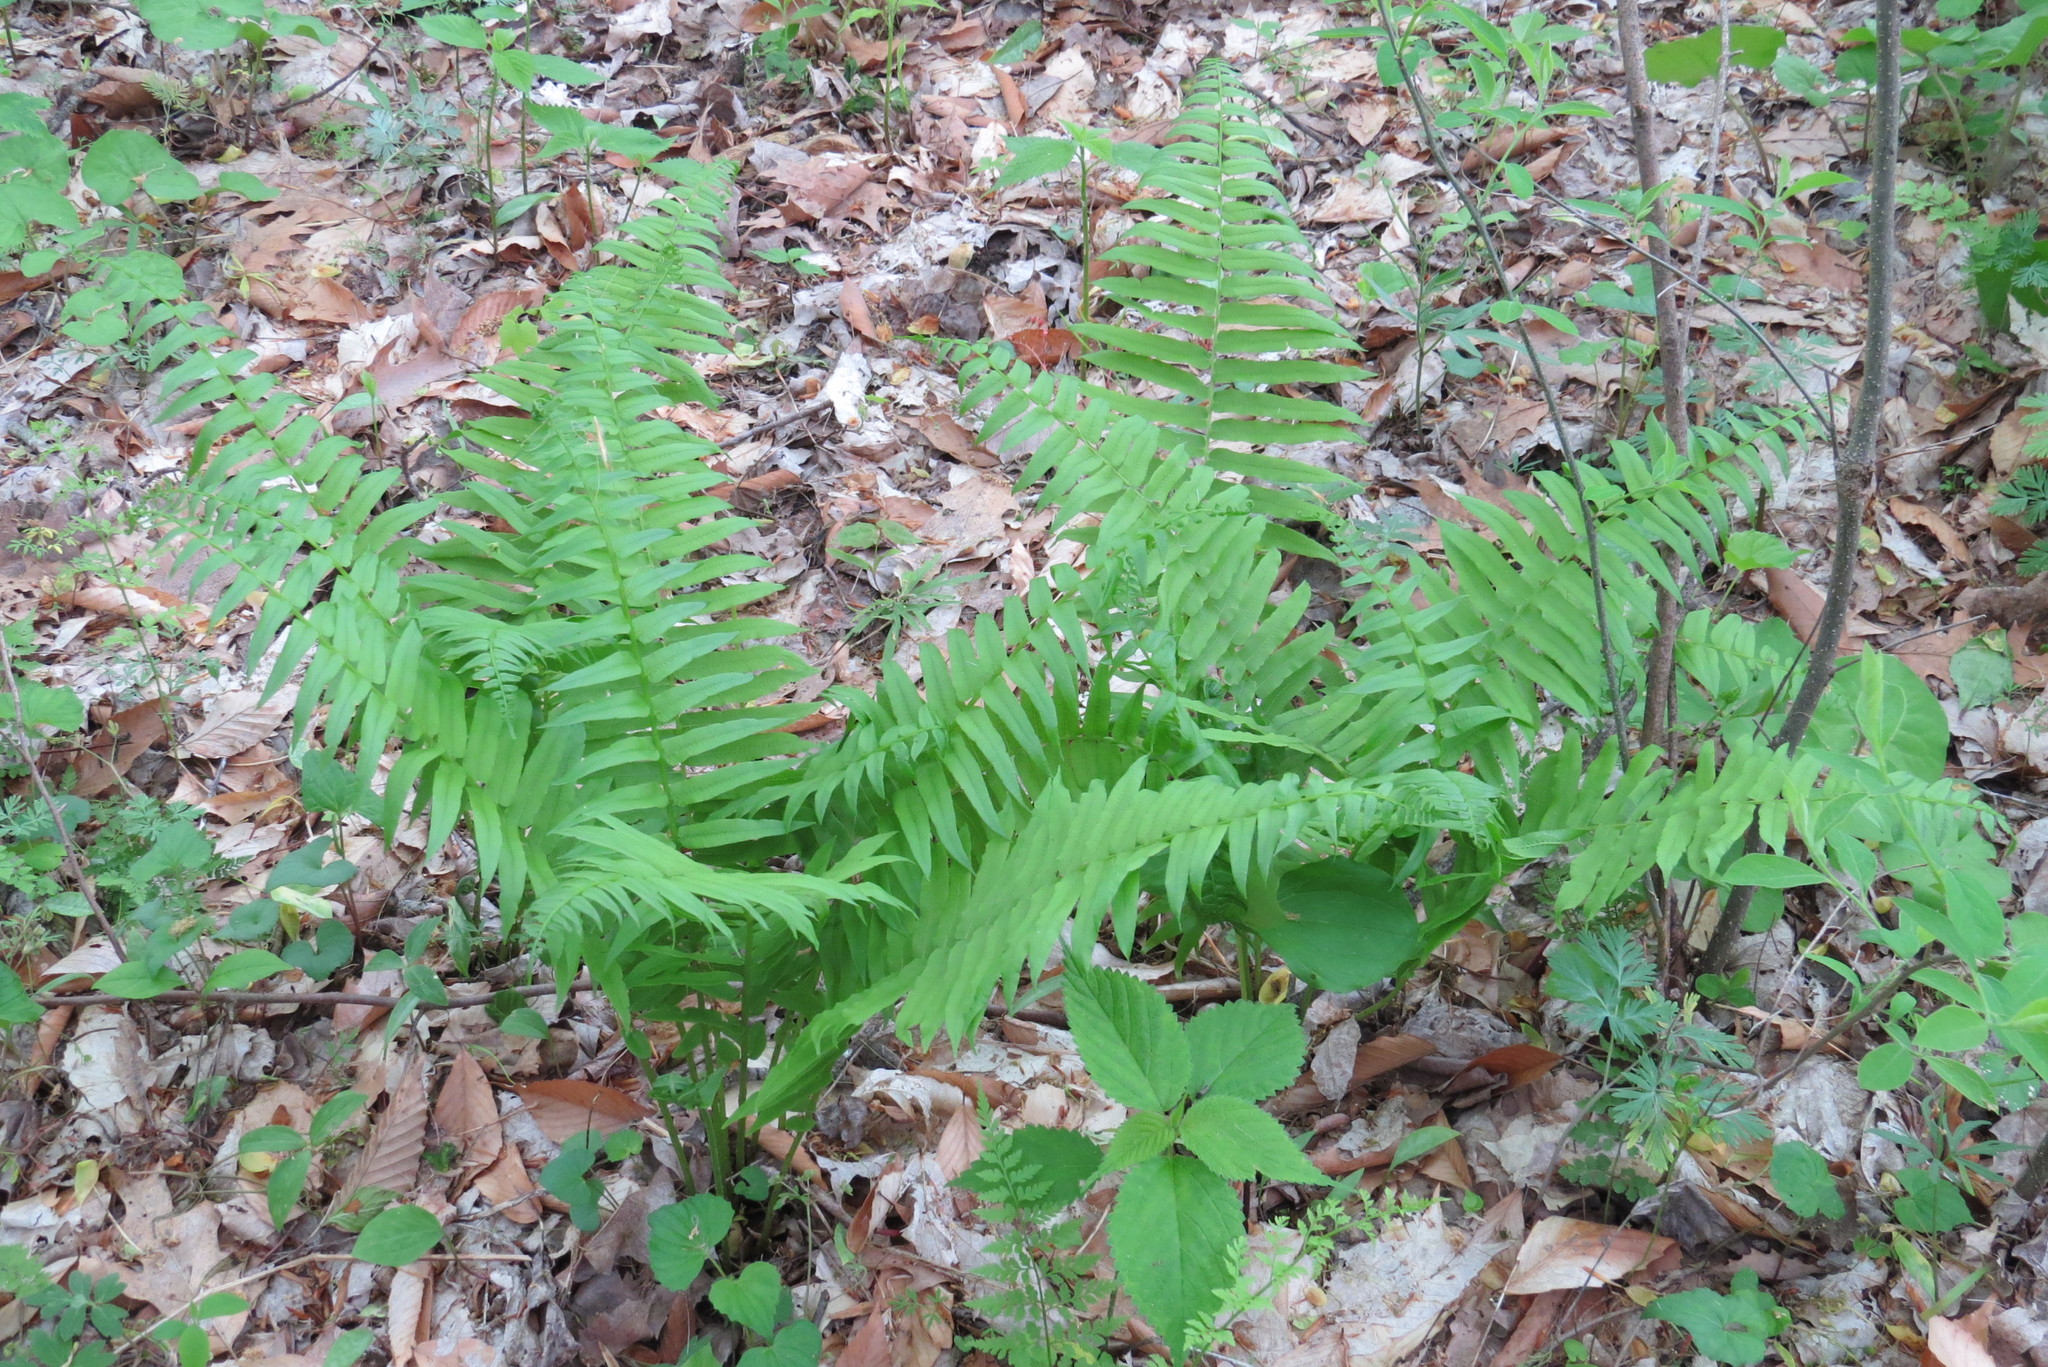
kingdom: Plantae
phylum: Tracheophyta
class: Polypodiopsida
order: Polypodiales
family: Diplaziopsidaceae
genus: Homalosorus
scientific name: Homalosorus pycnocarpos
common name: Glade fern
